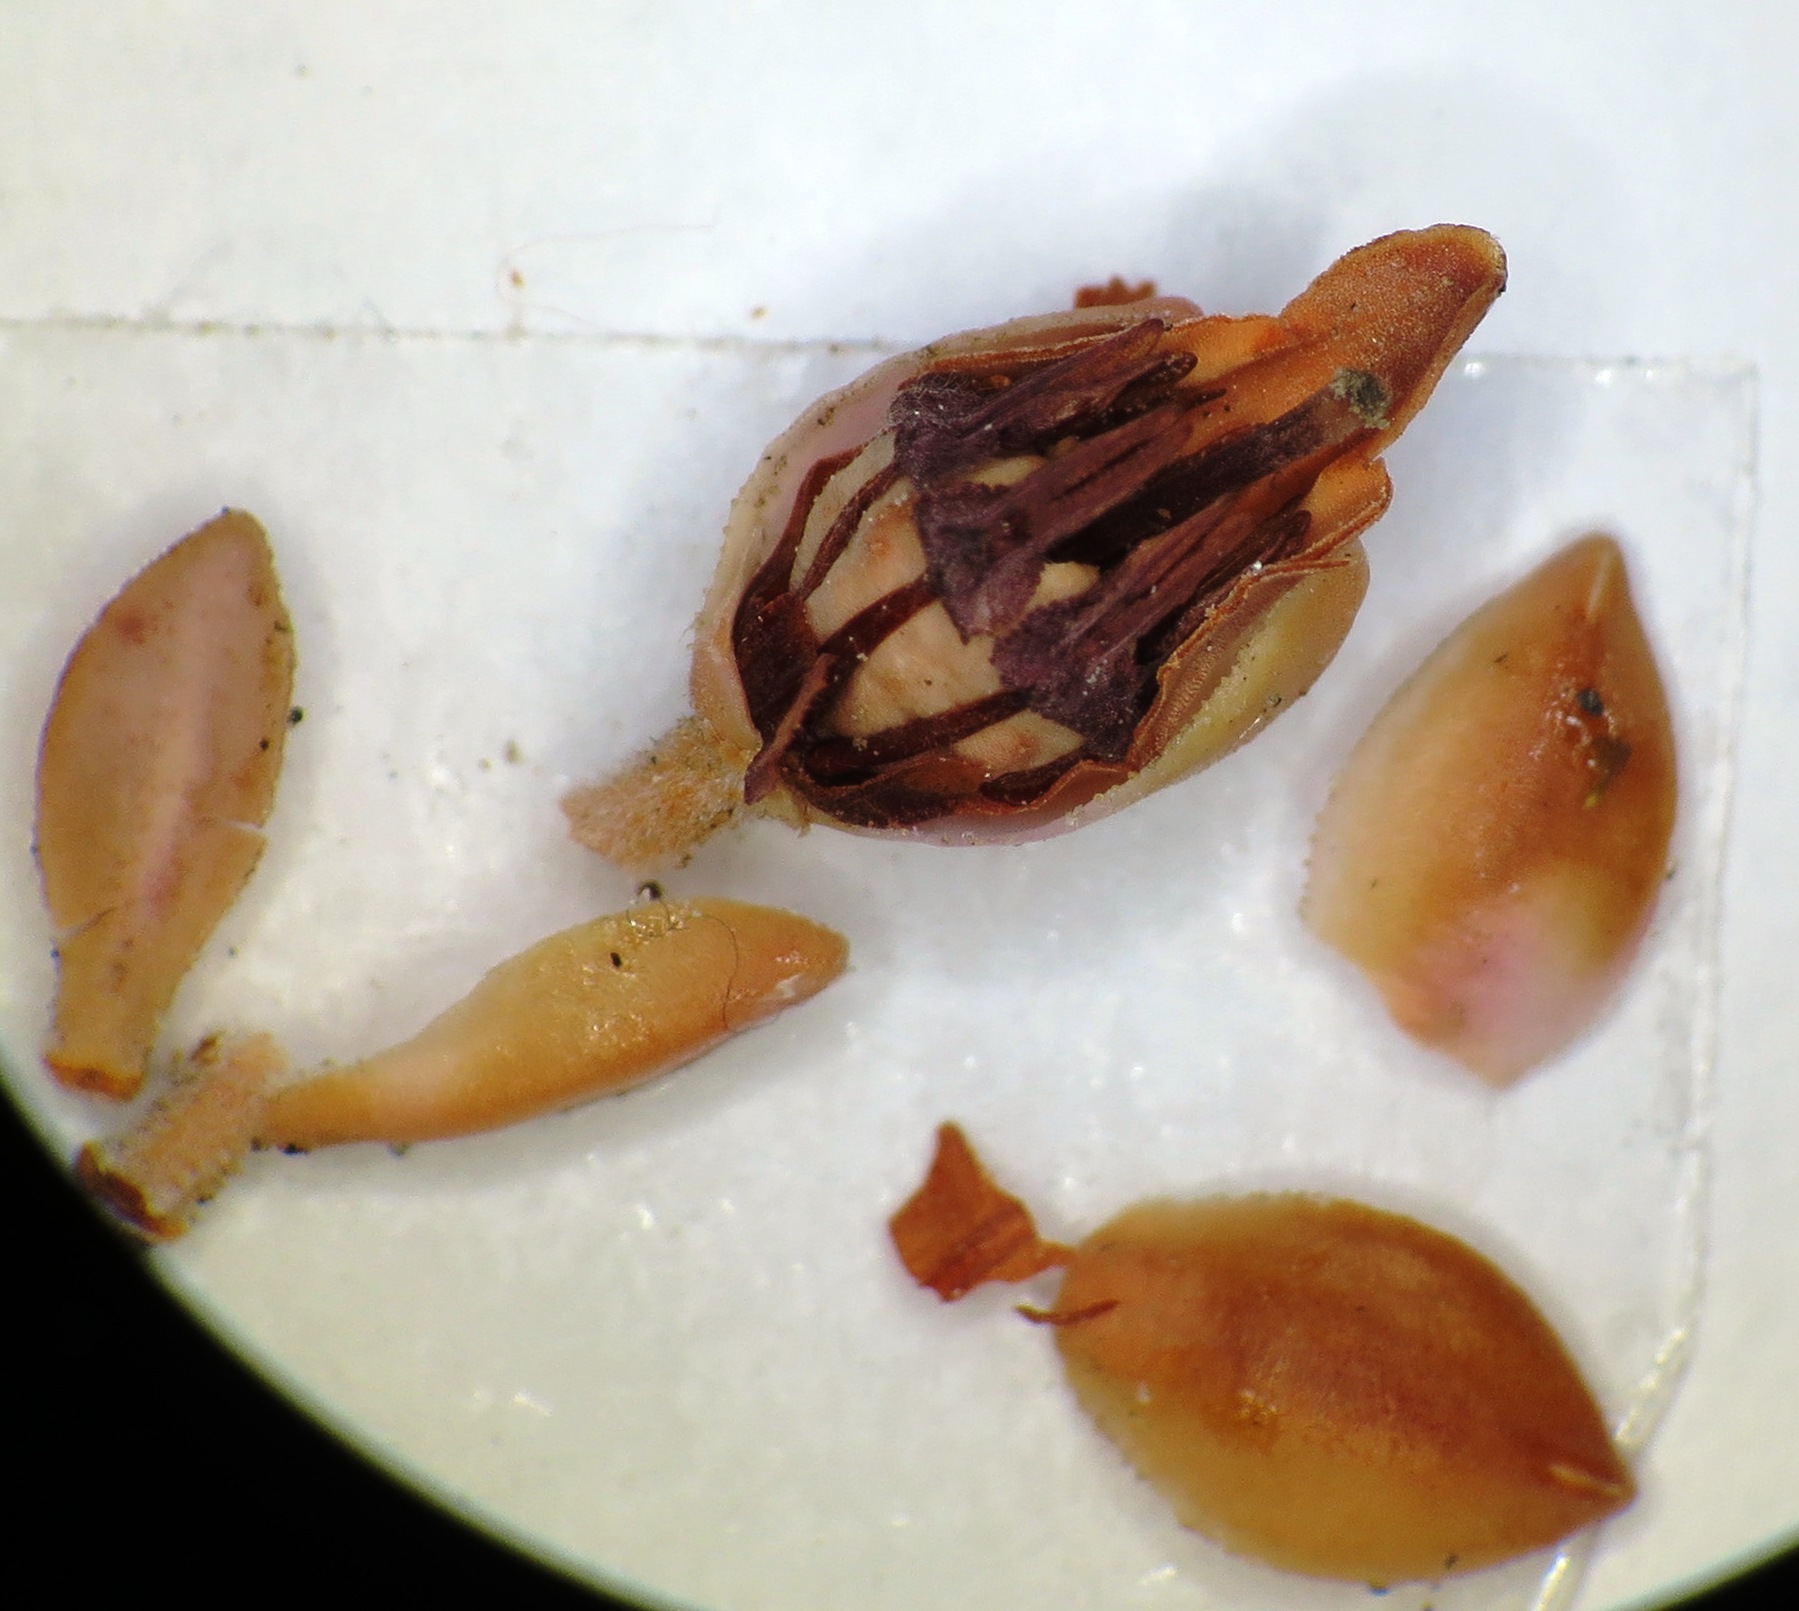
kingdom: Plantae
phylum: Tracheophyta
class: Magnoliopsida
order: Ericales
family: Ericaceae
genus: Erica
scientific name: Erica goatcheriana
